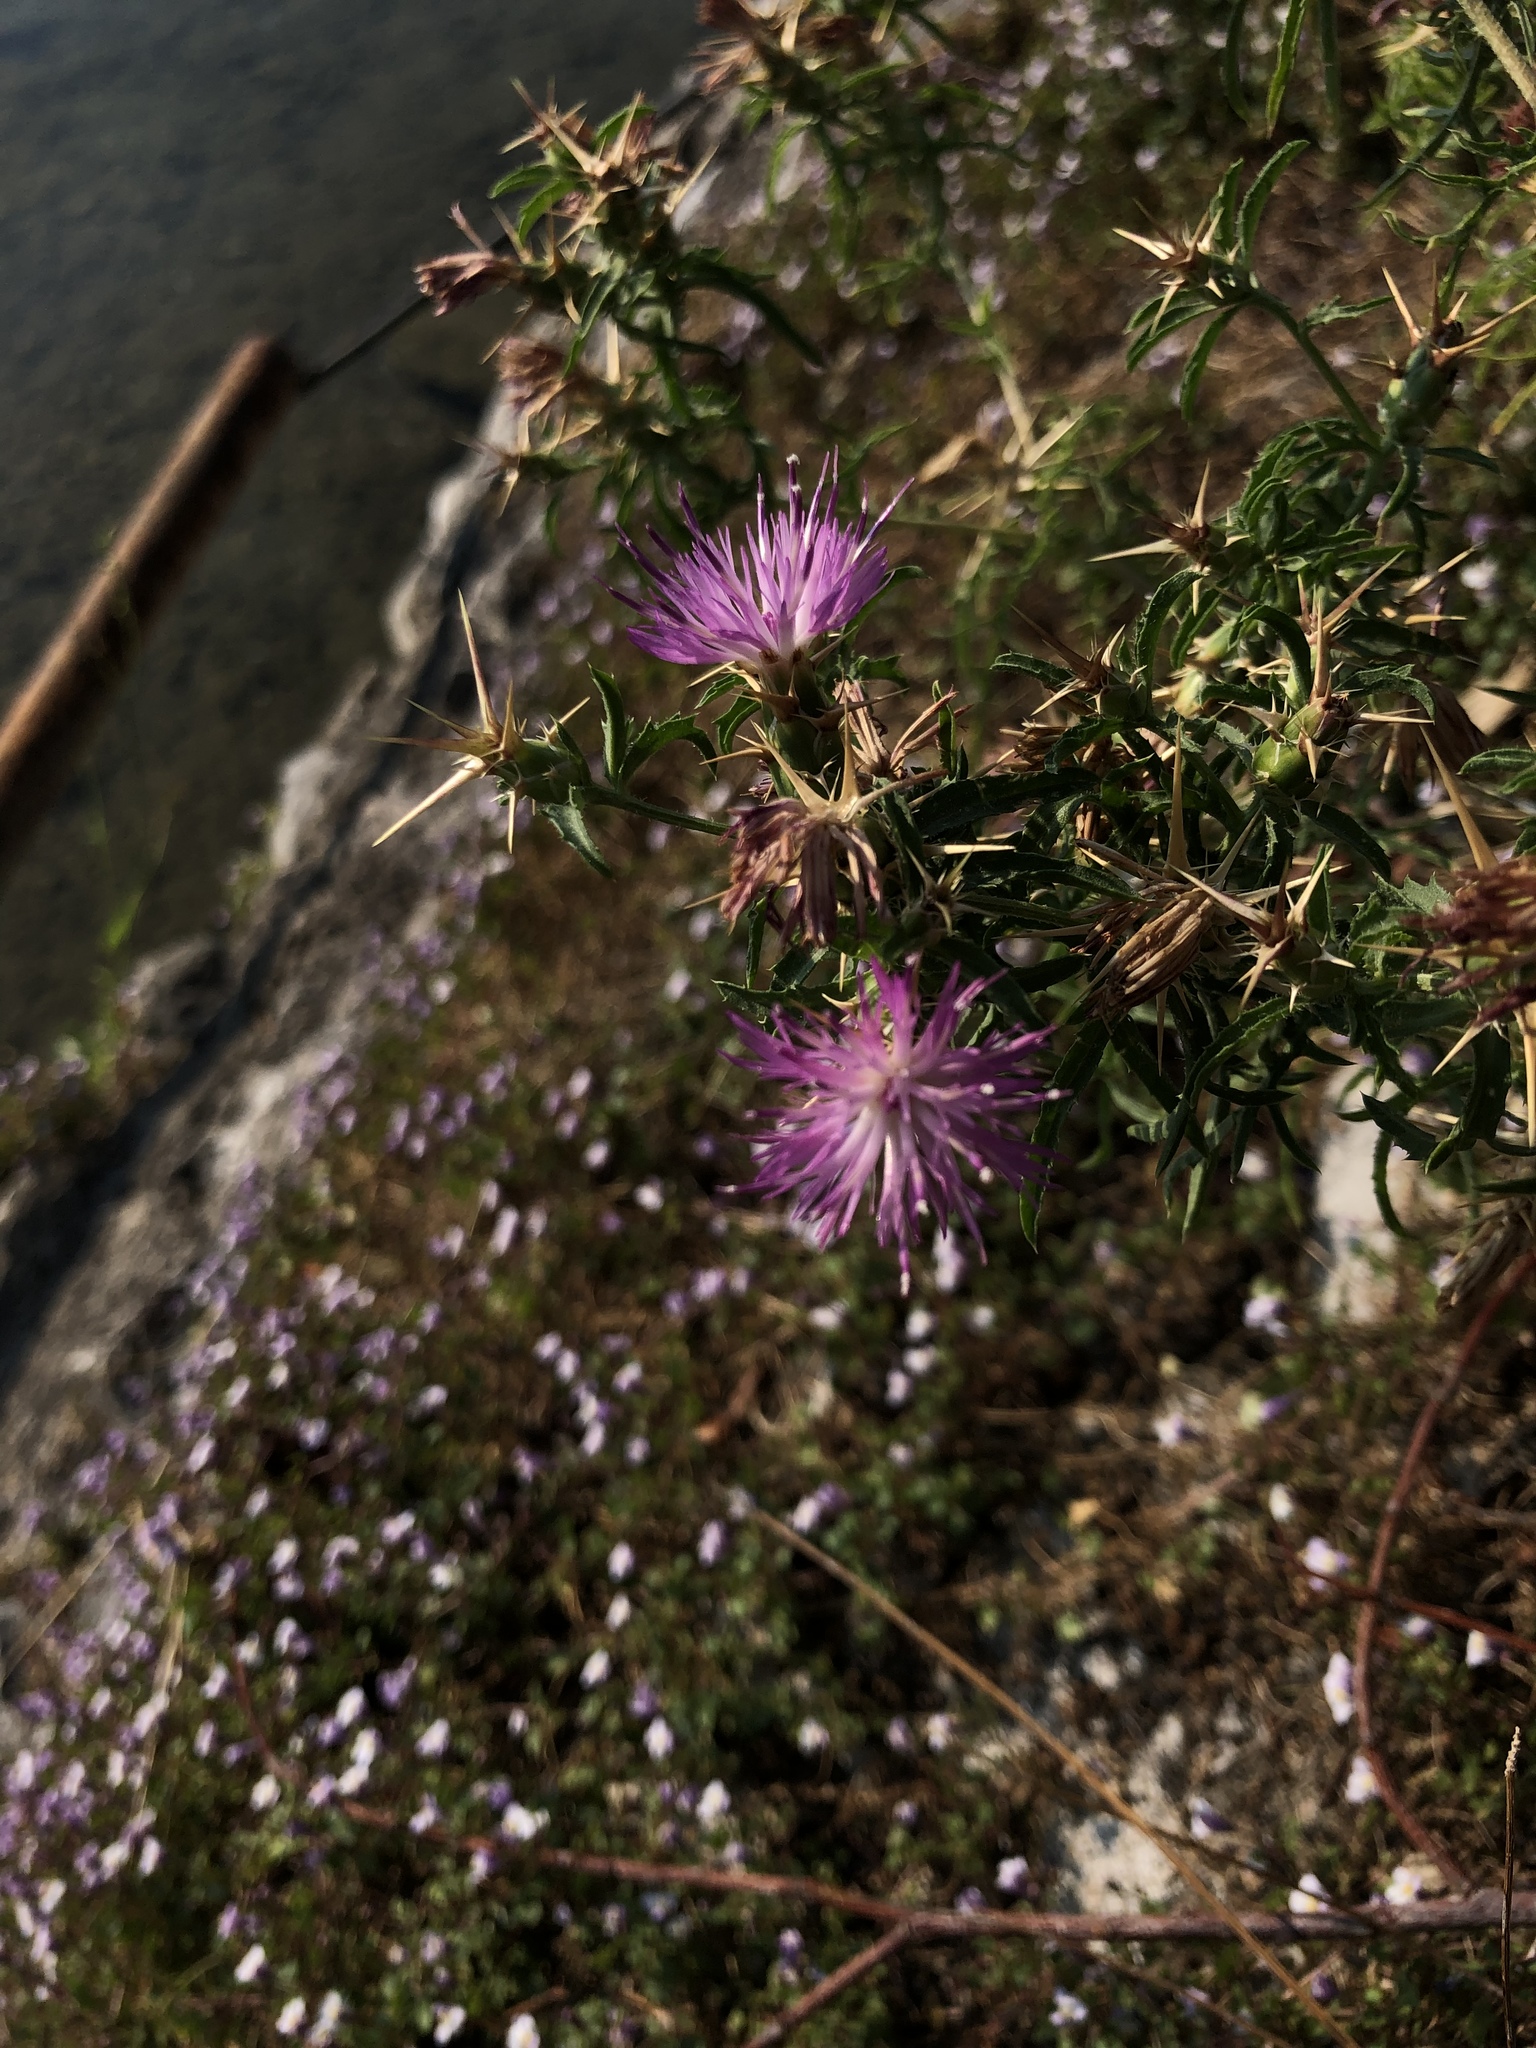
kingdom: Plantae
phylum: Tracheophyta
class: Magnoliopsida
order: Asterales
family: Asteraceae
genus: Centaurea
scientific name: Centaurea calcitrapa
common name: Red star-thistle
